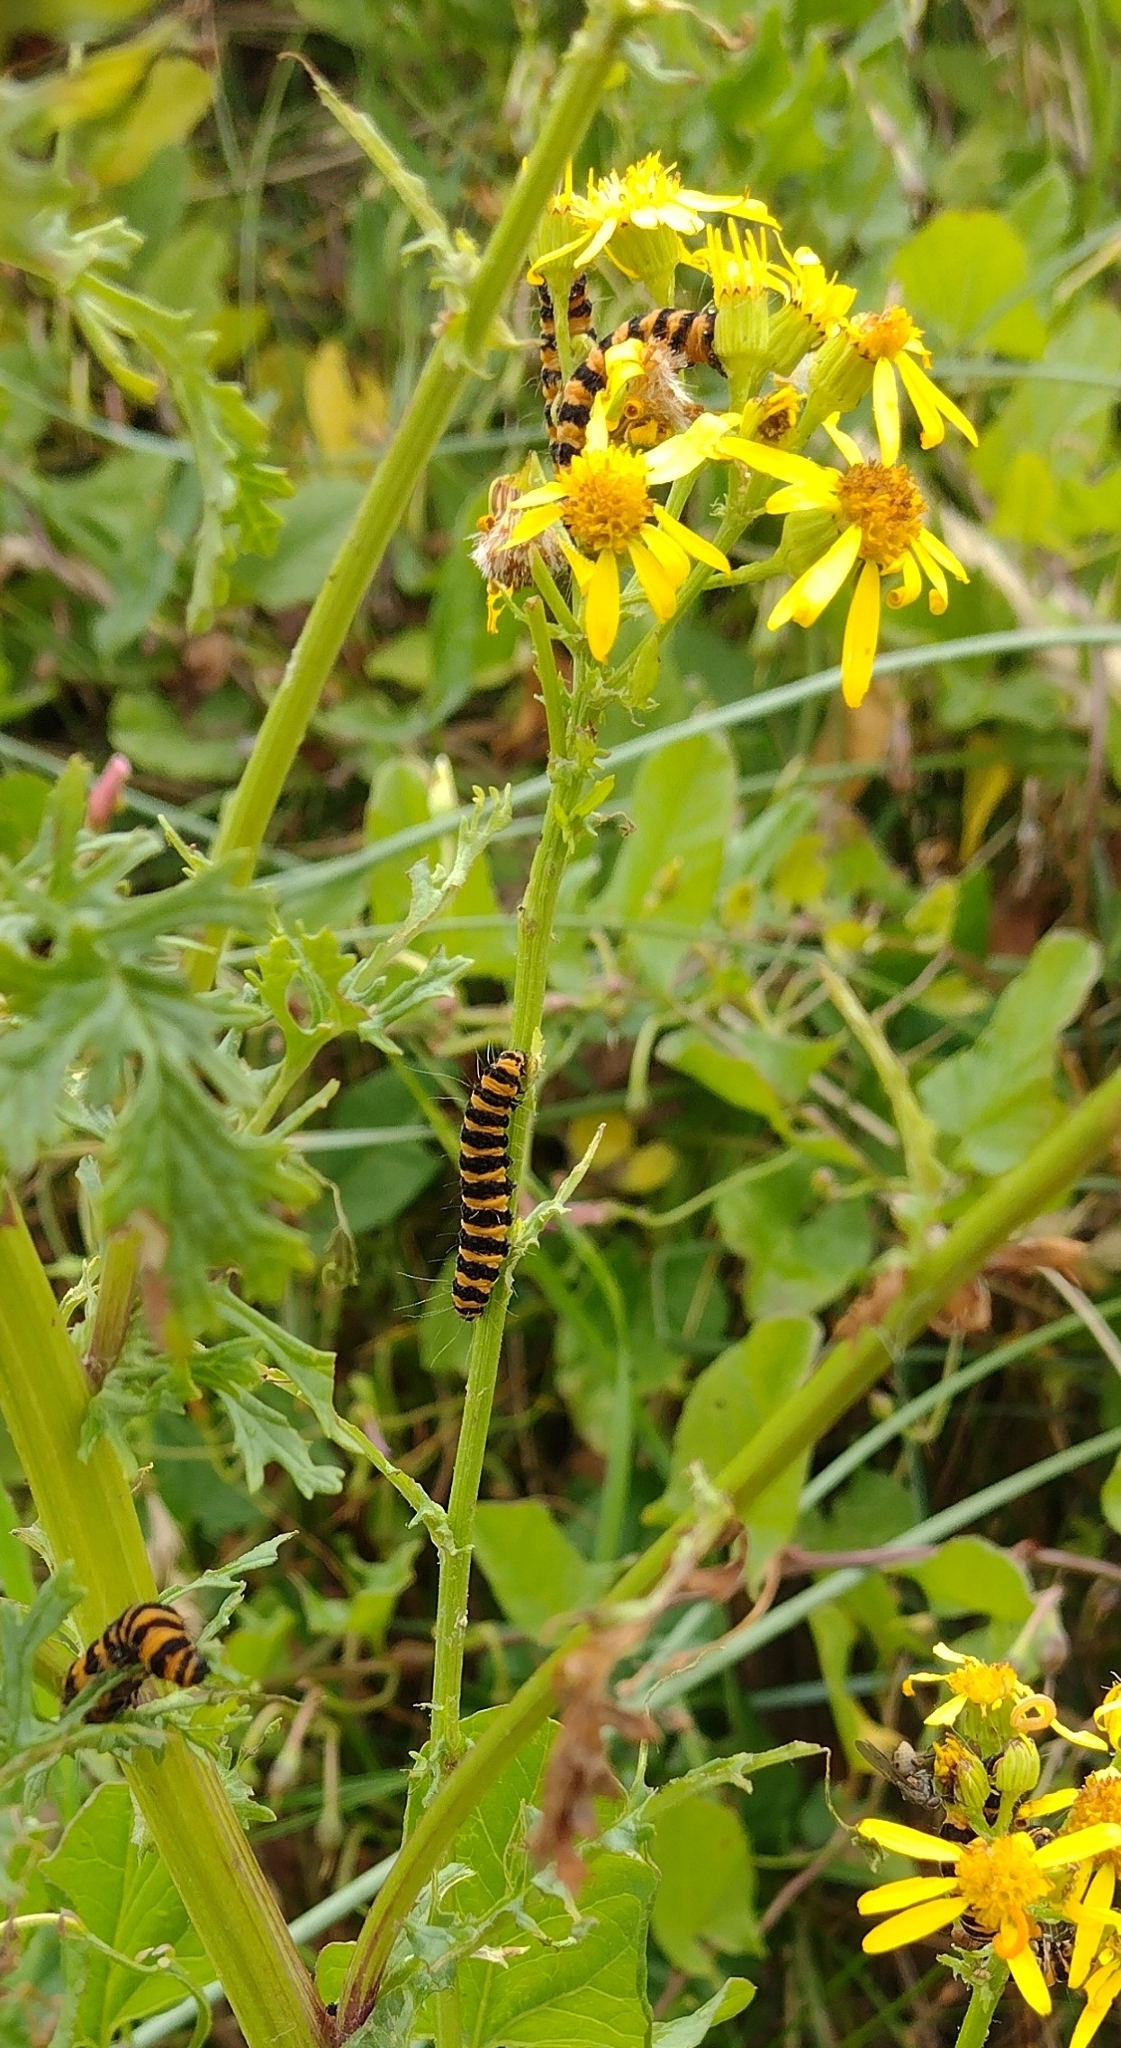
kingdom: Animalia
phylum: Arthropoda
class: Insecta
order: Lepidoptera
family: Erebidae
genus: Tyria
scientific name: Tyria jacobaeae
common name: Cinnabar
